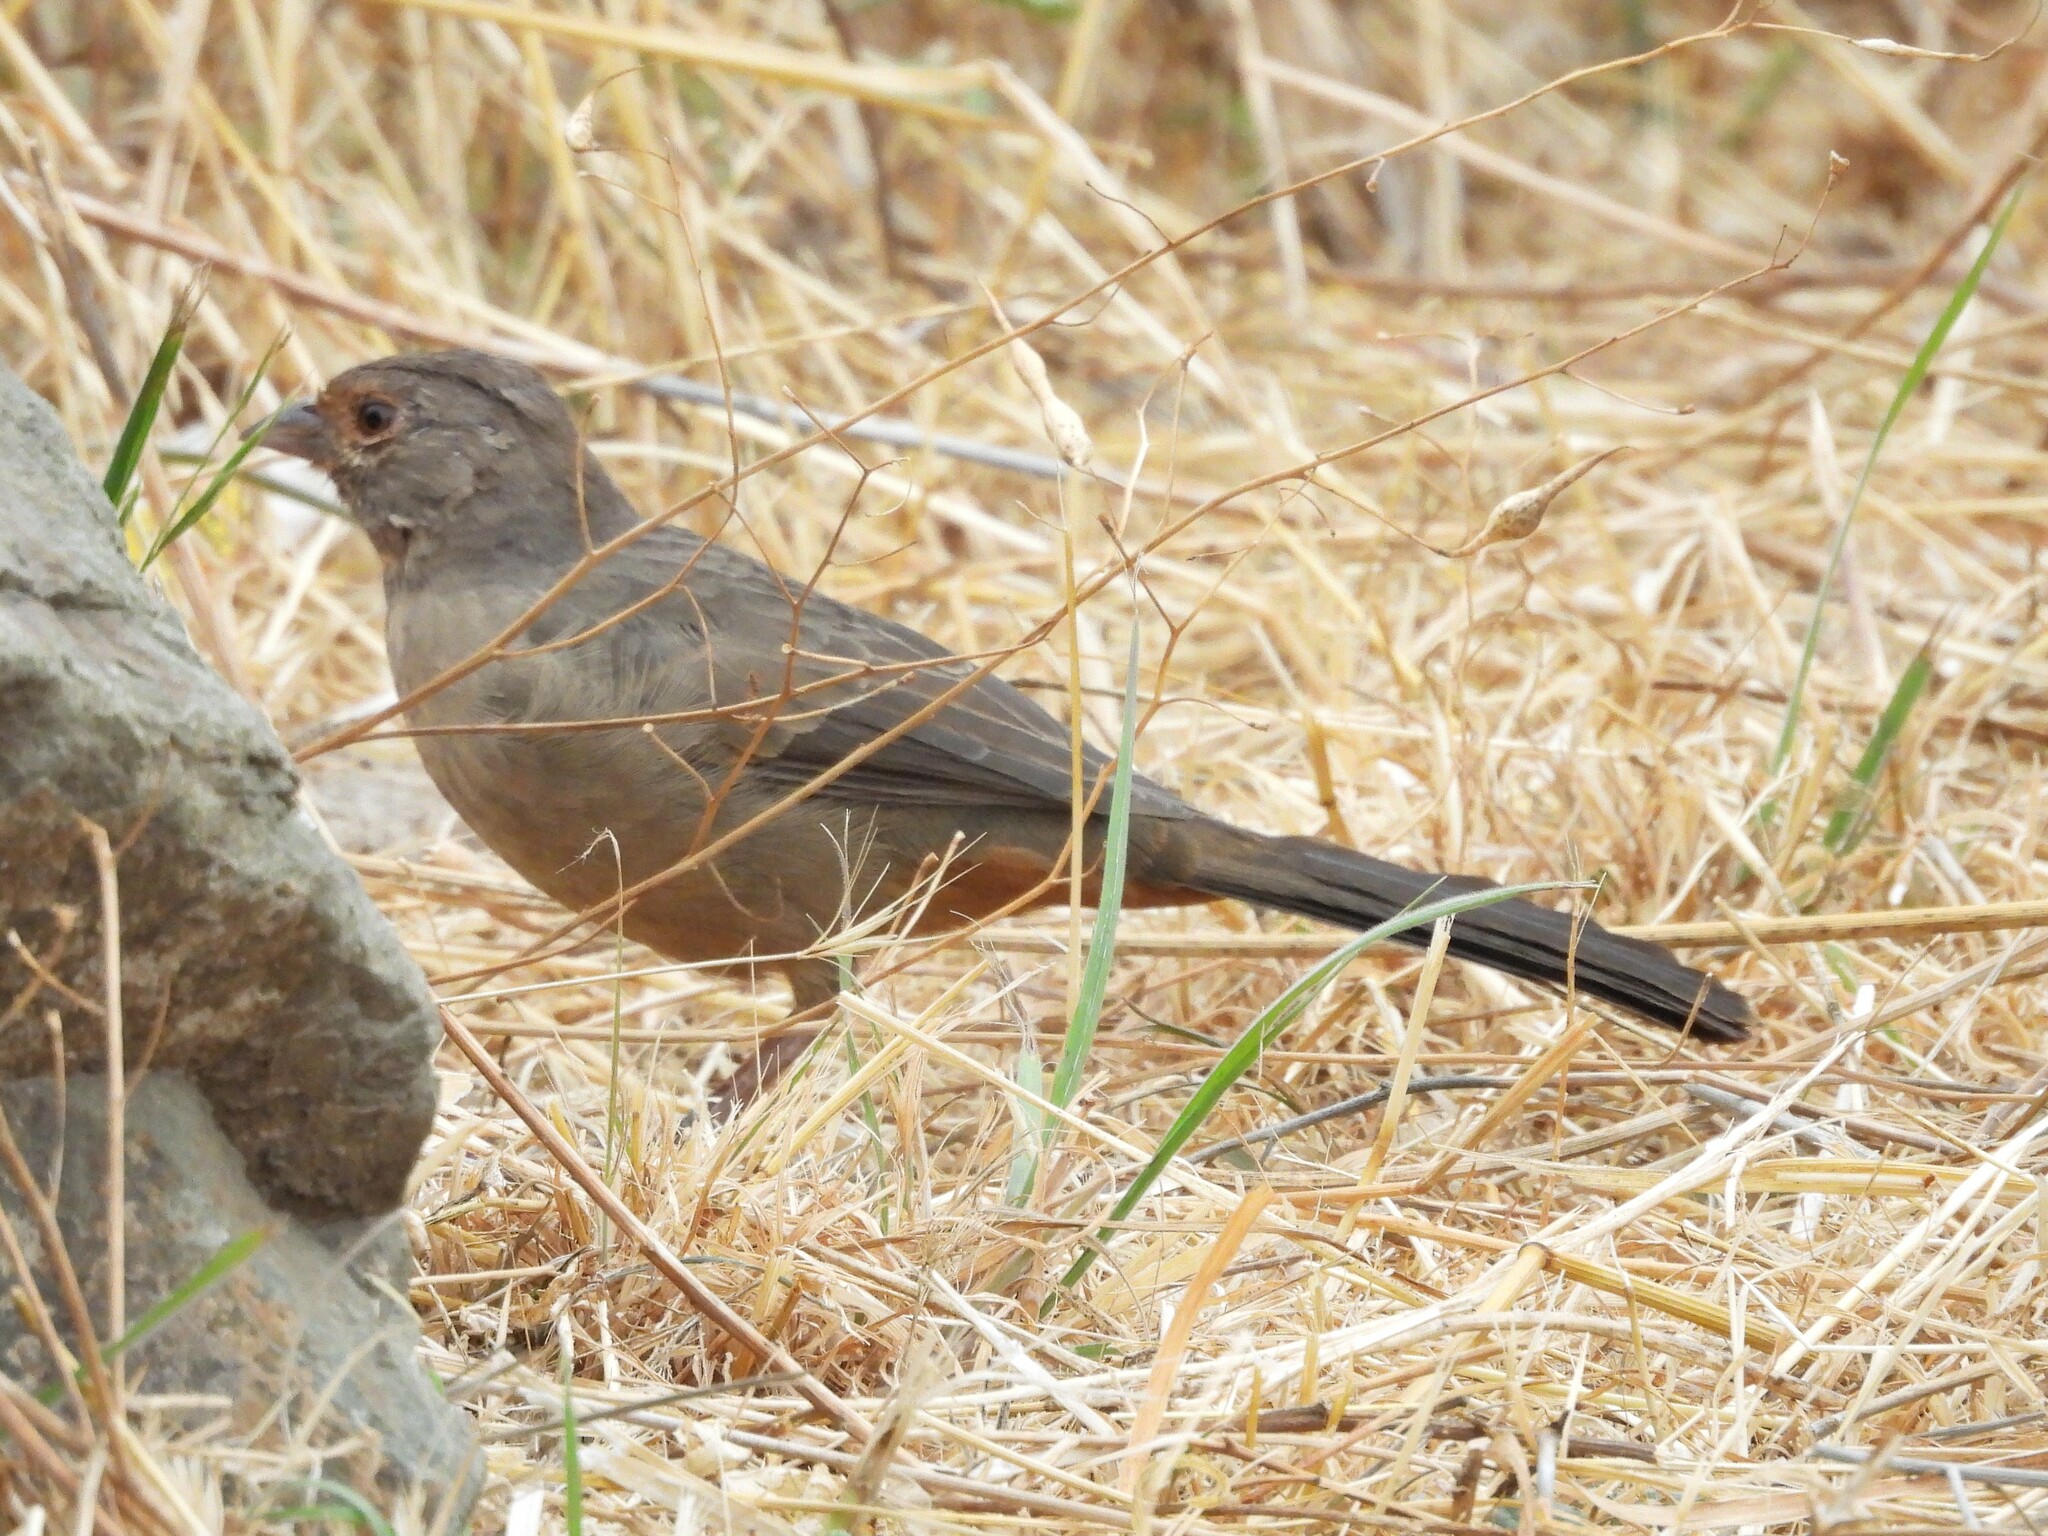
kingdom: Animalia
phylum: Chordata
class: Aves
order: Passeriformes
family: Passerellidae
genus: Melozone
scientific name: Melozone crissalis
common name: California towhee
